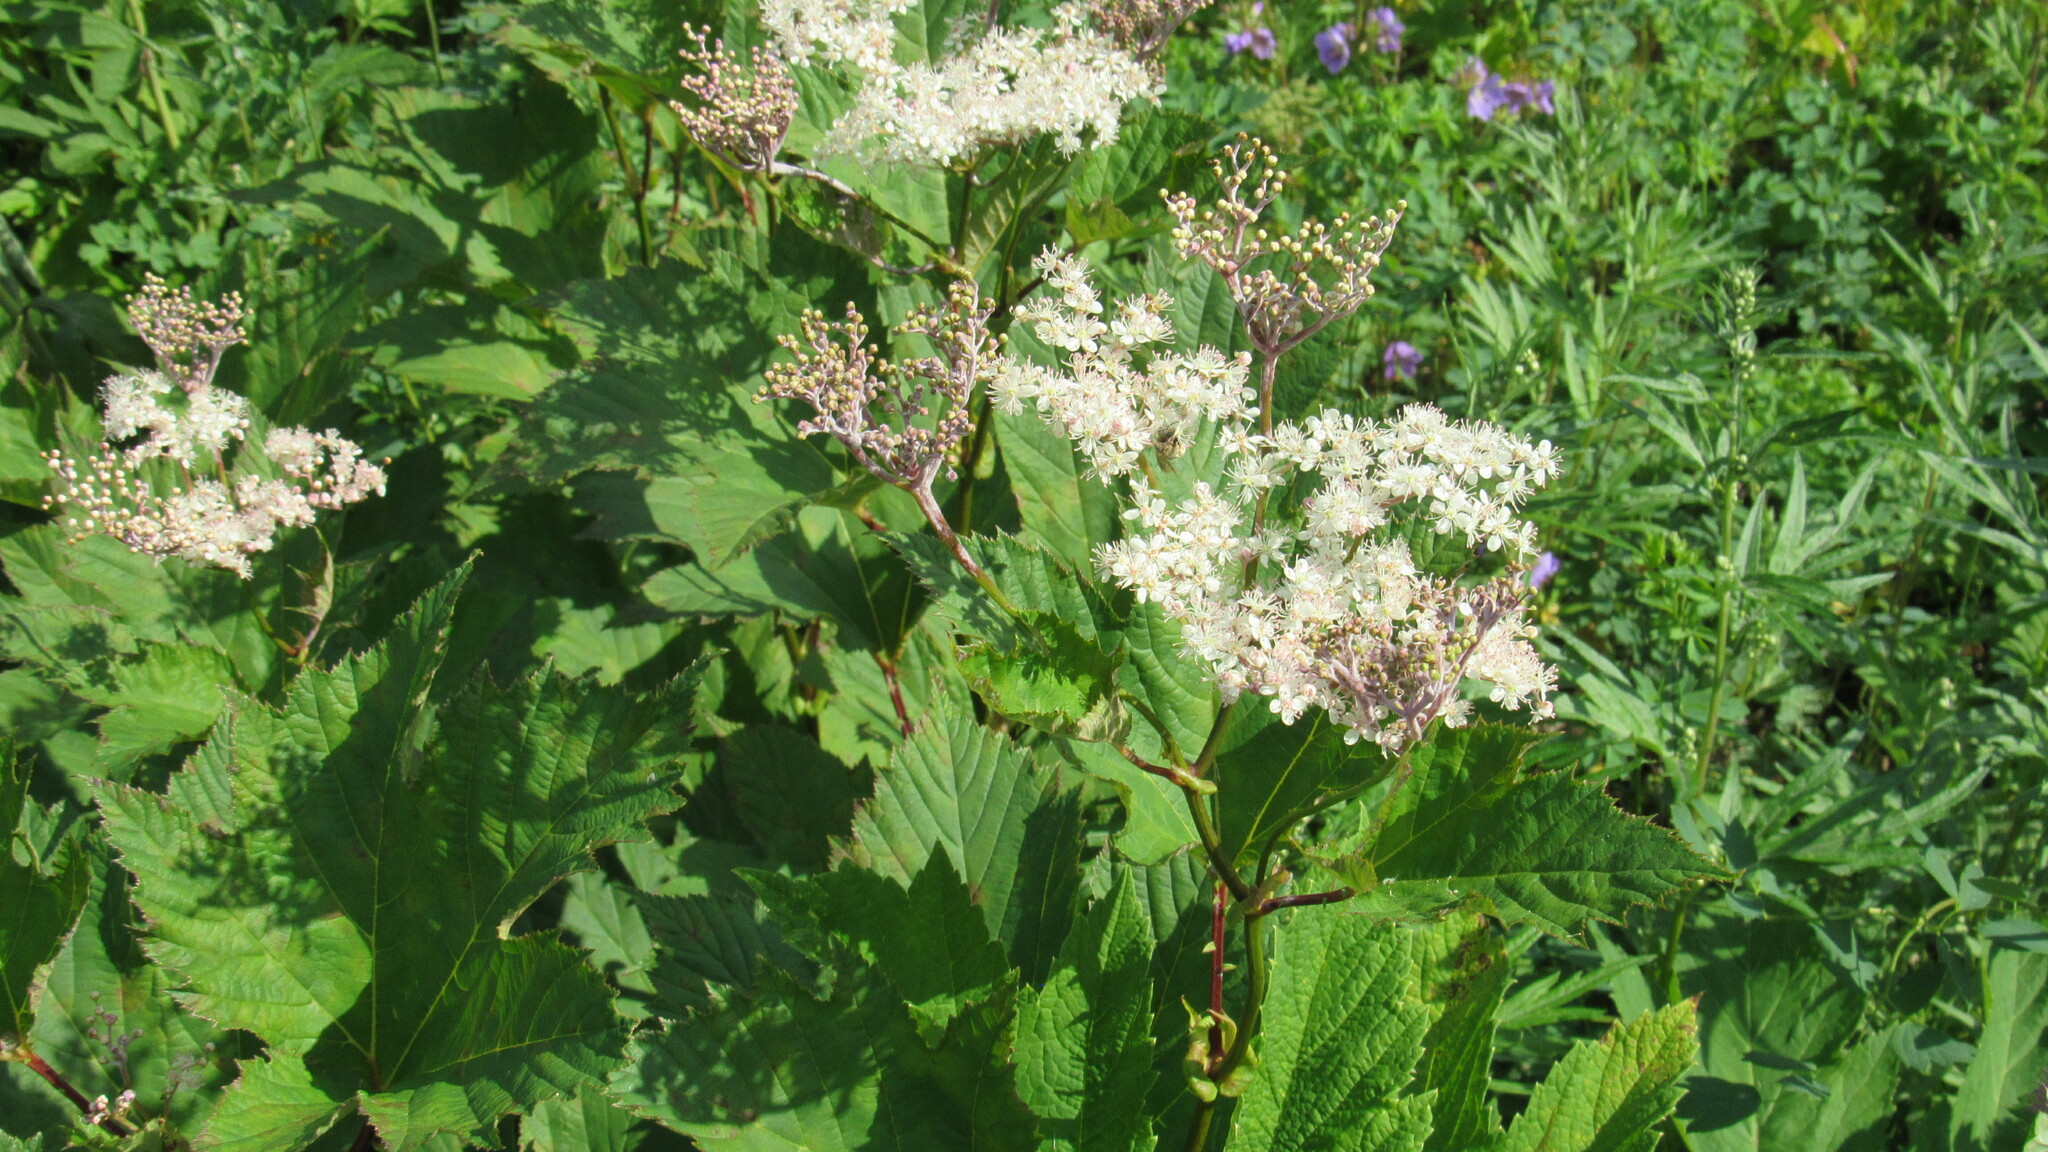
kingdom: Plantae
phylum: Tracheophyta
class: Magnoliopsida
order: Rosales
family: Rosaceae
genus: Filipendula
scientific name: Filipendula camtschatica
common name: Giant meadowsweet
